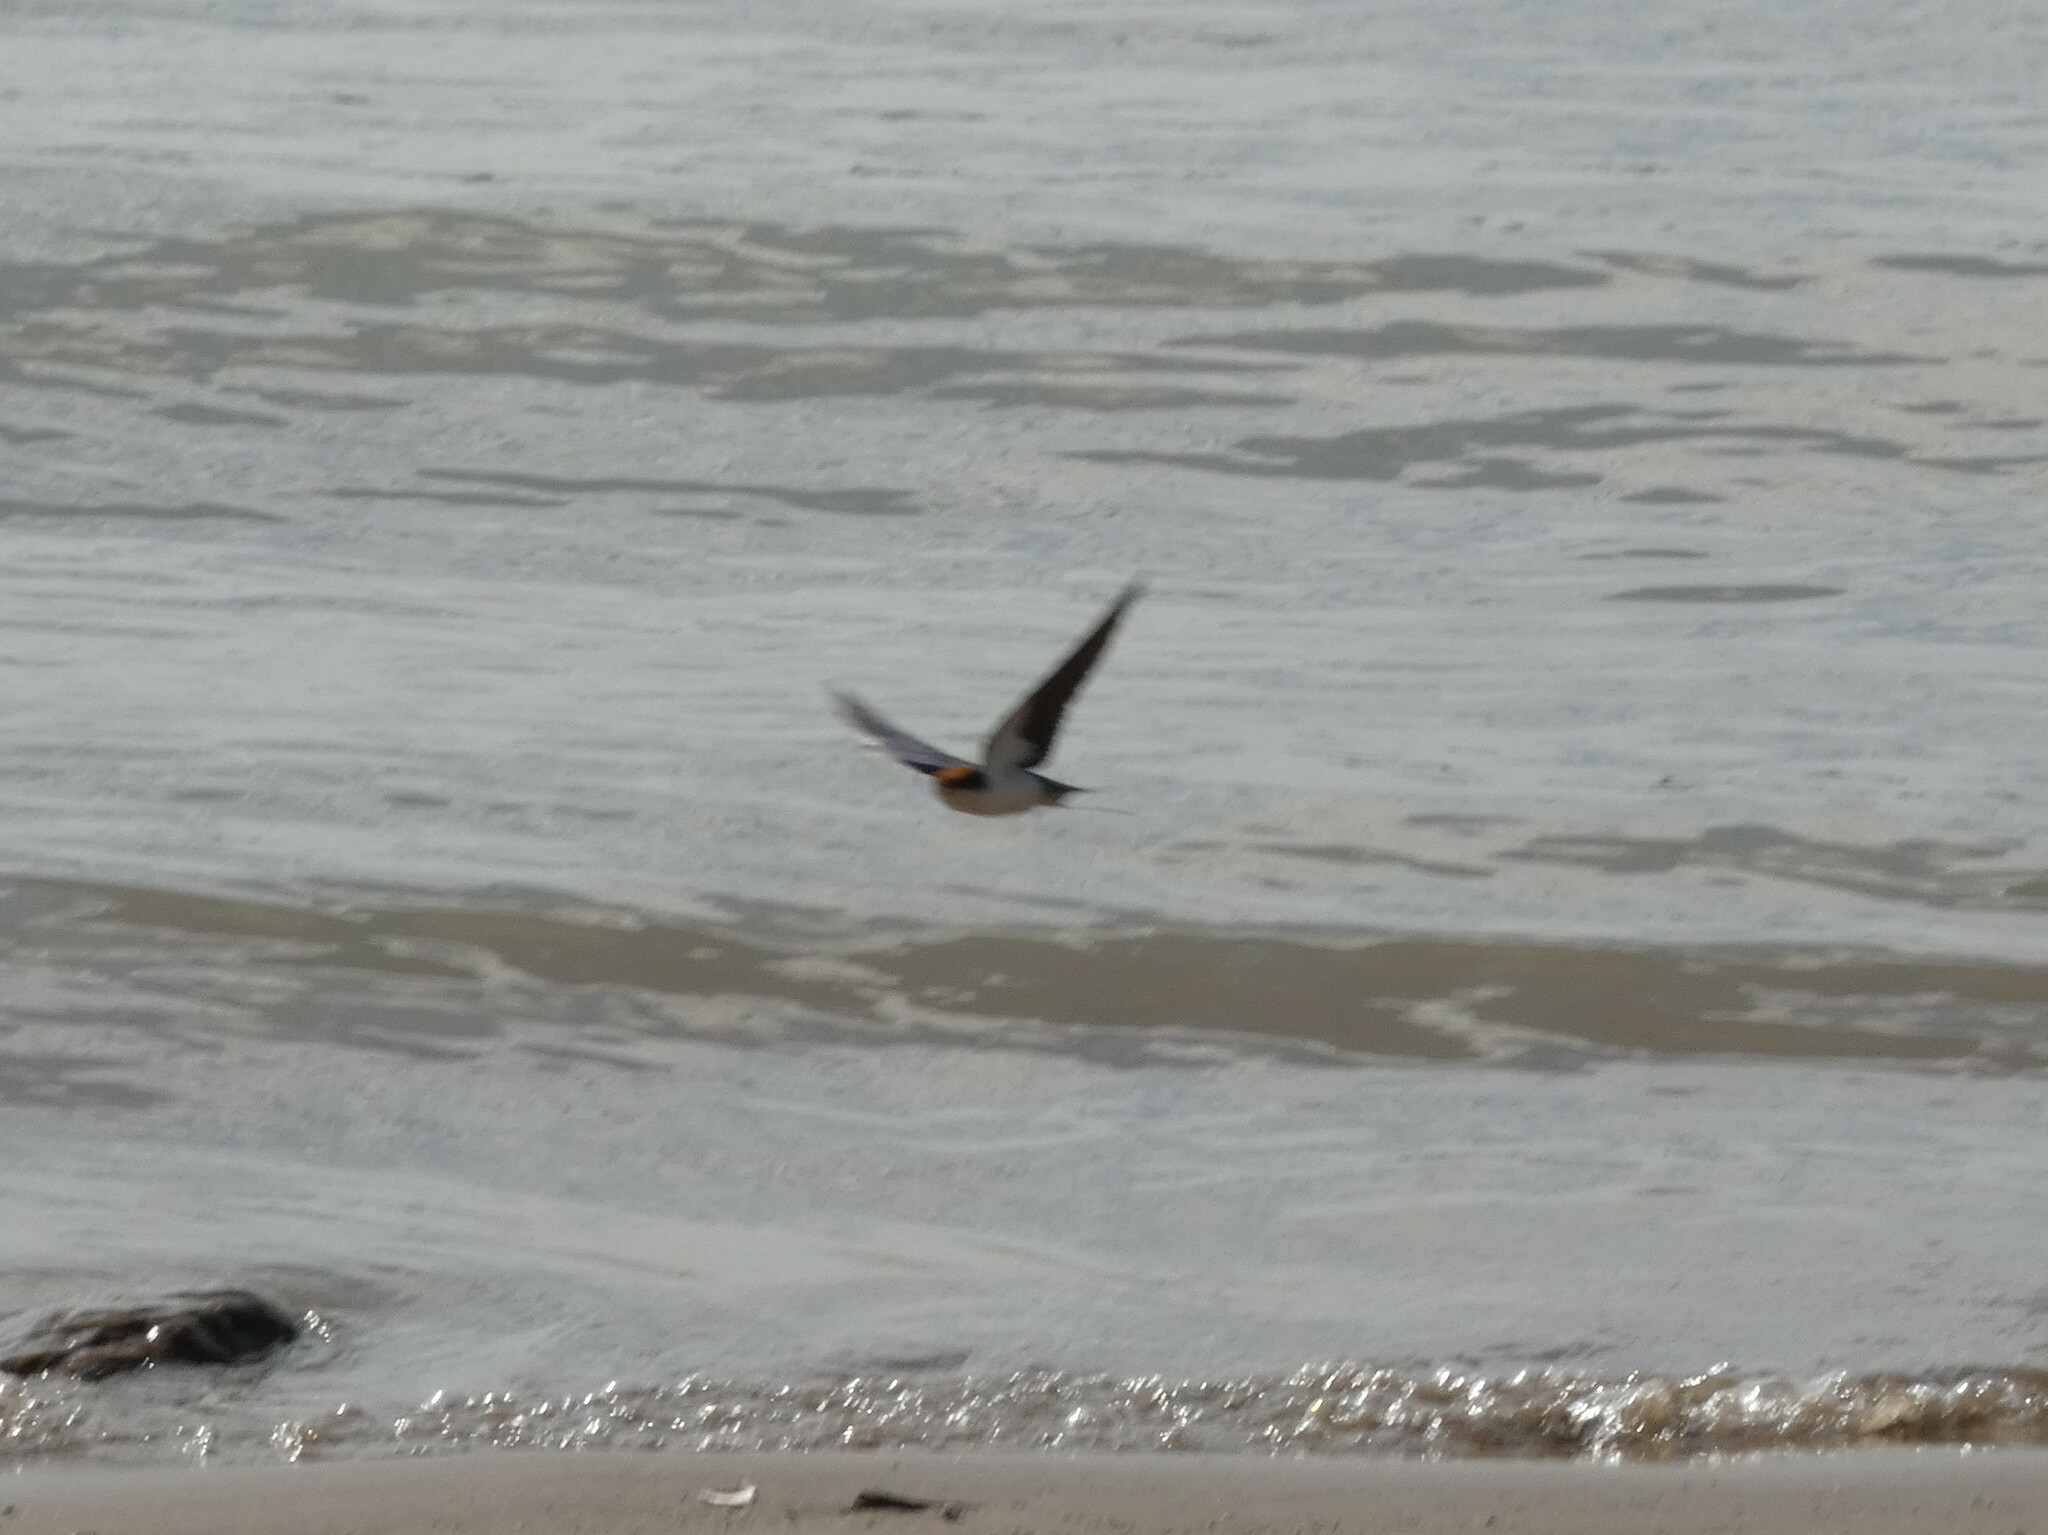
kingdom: Animalia
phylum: Chordata
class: Aves
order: Passeriformes
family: Hirundinidae
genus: Hirundo
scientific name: Hirundo smithii
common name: Wire-tailed swallow
